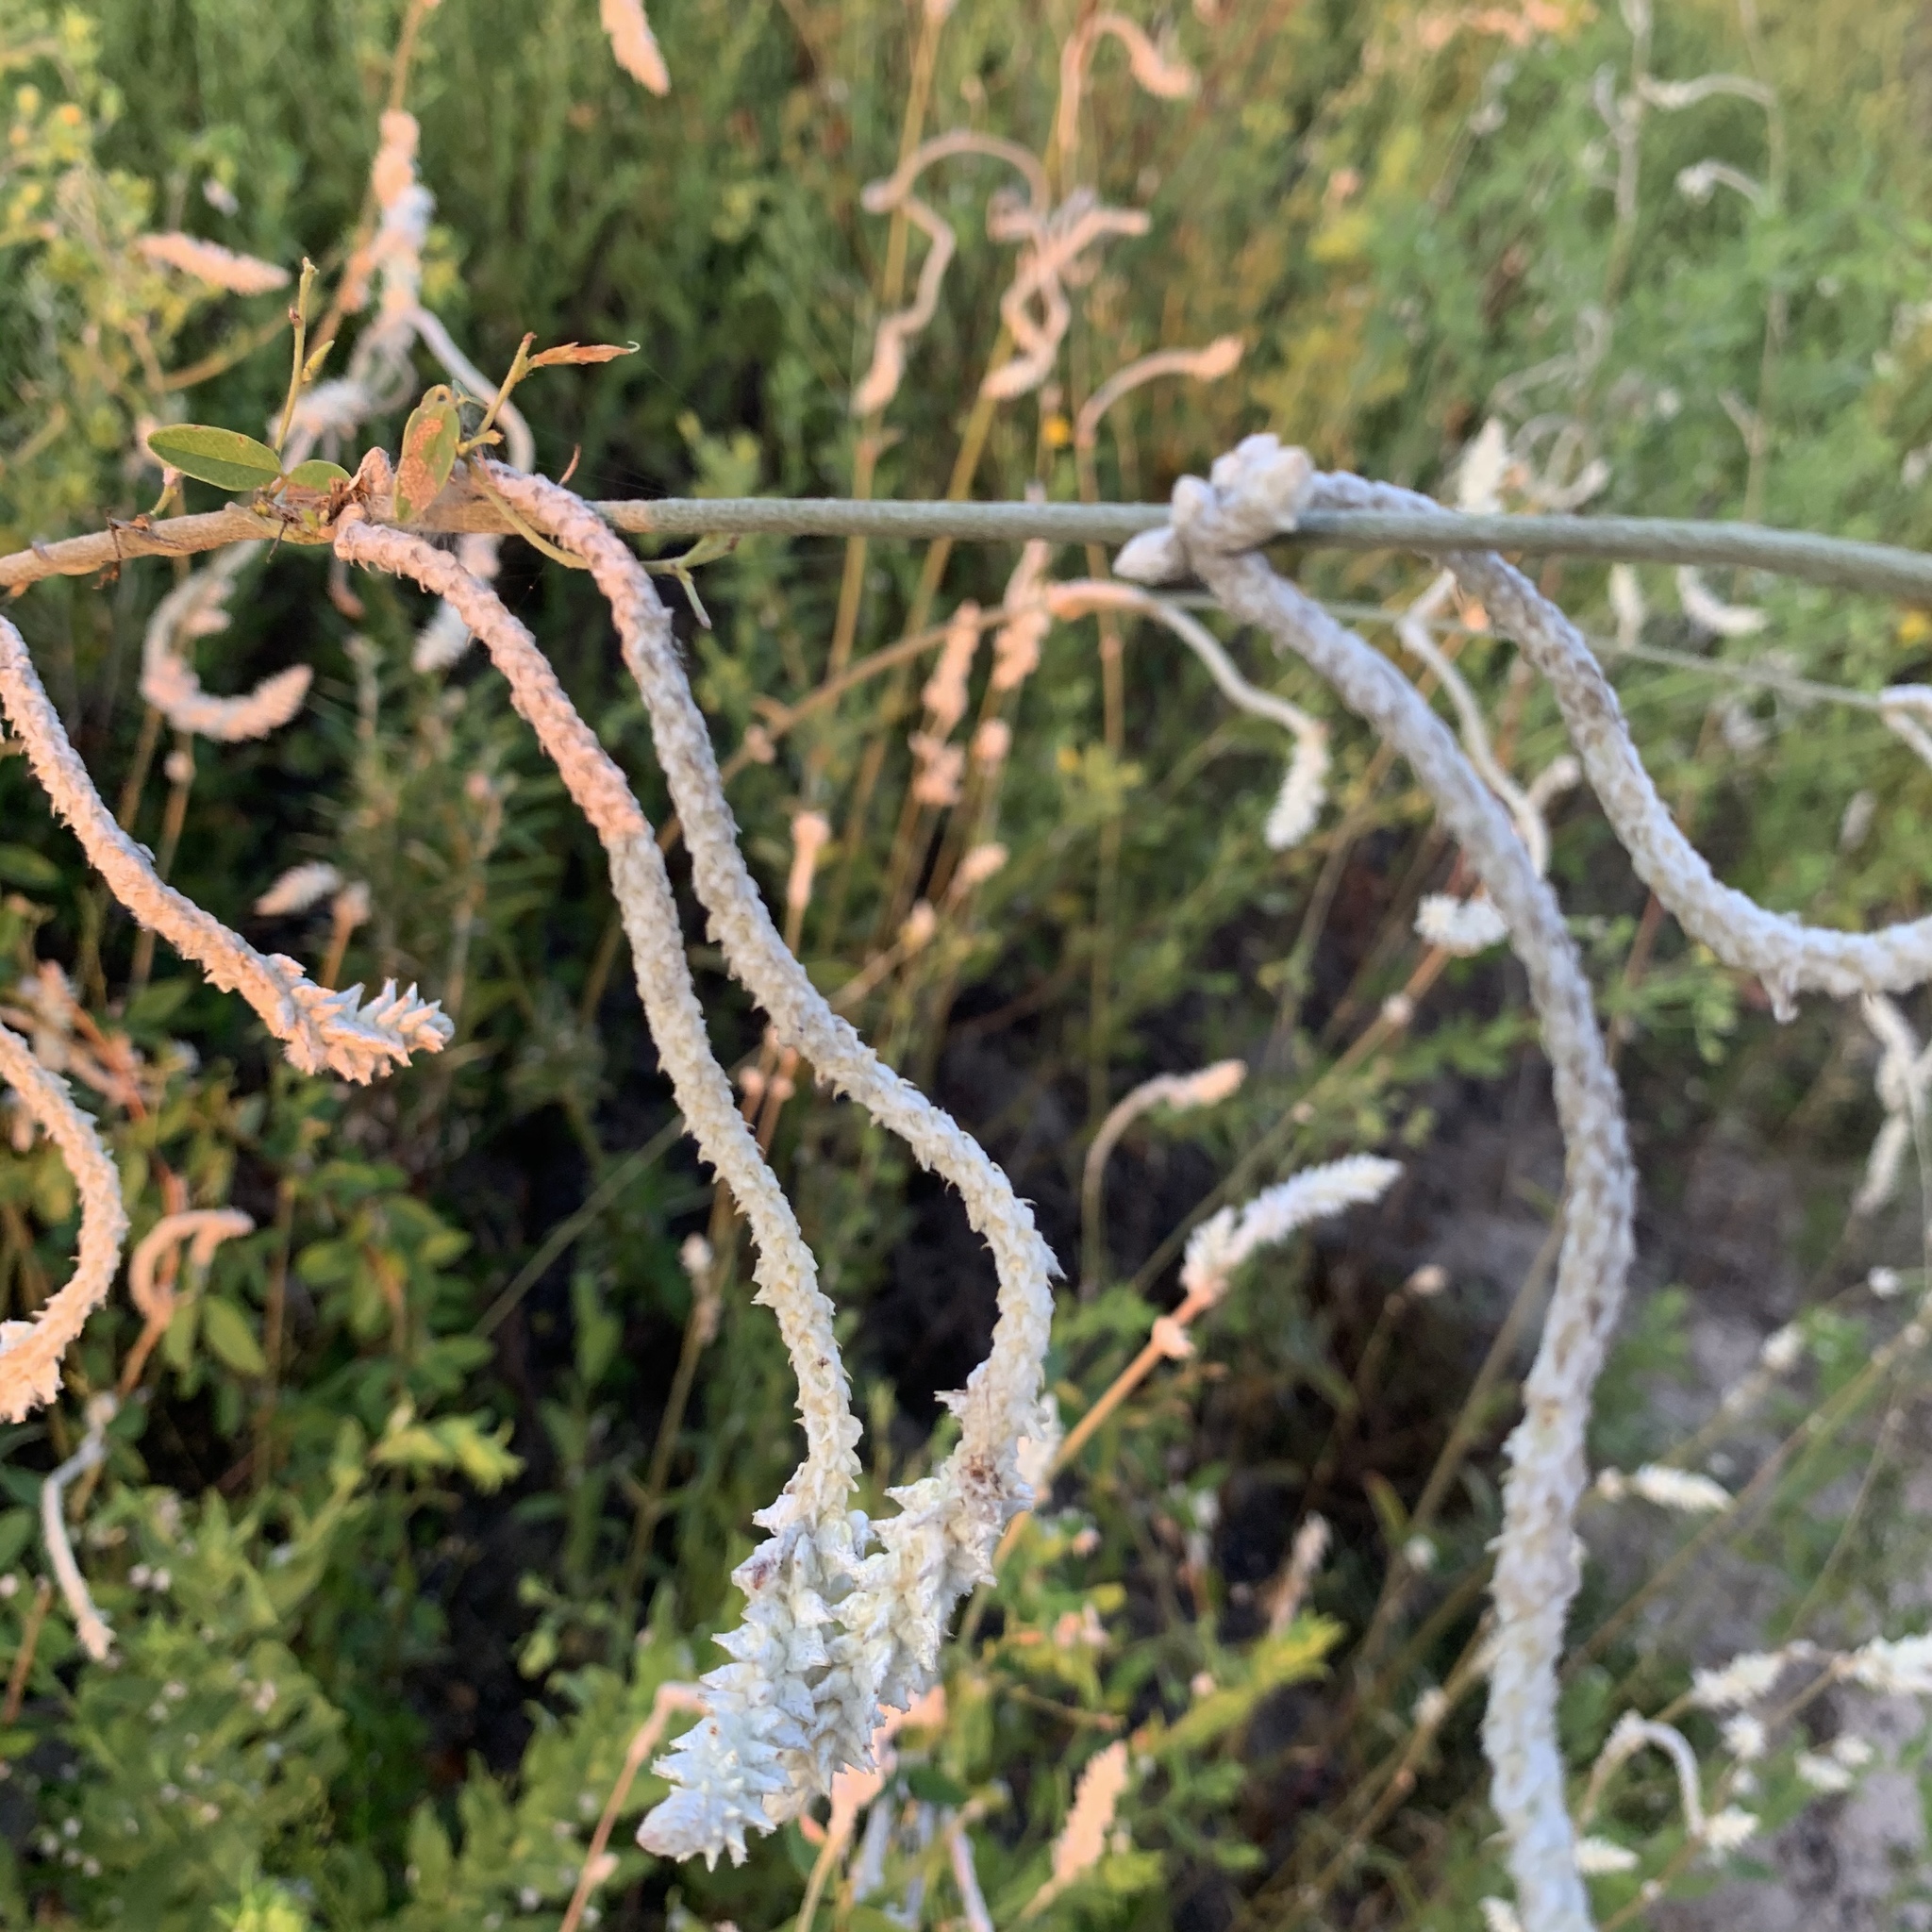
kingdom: Plantae
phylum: Tracheophyta
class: Magnoliopsida
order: Caryophyllales
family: Amaranthaceae
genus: Froelichia
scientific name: Froelichia floridana
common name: Florida snake-cotton
